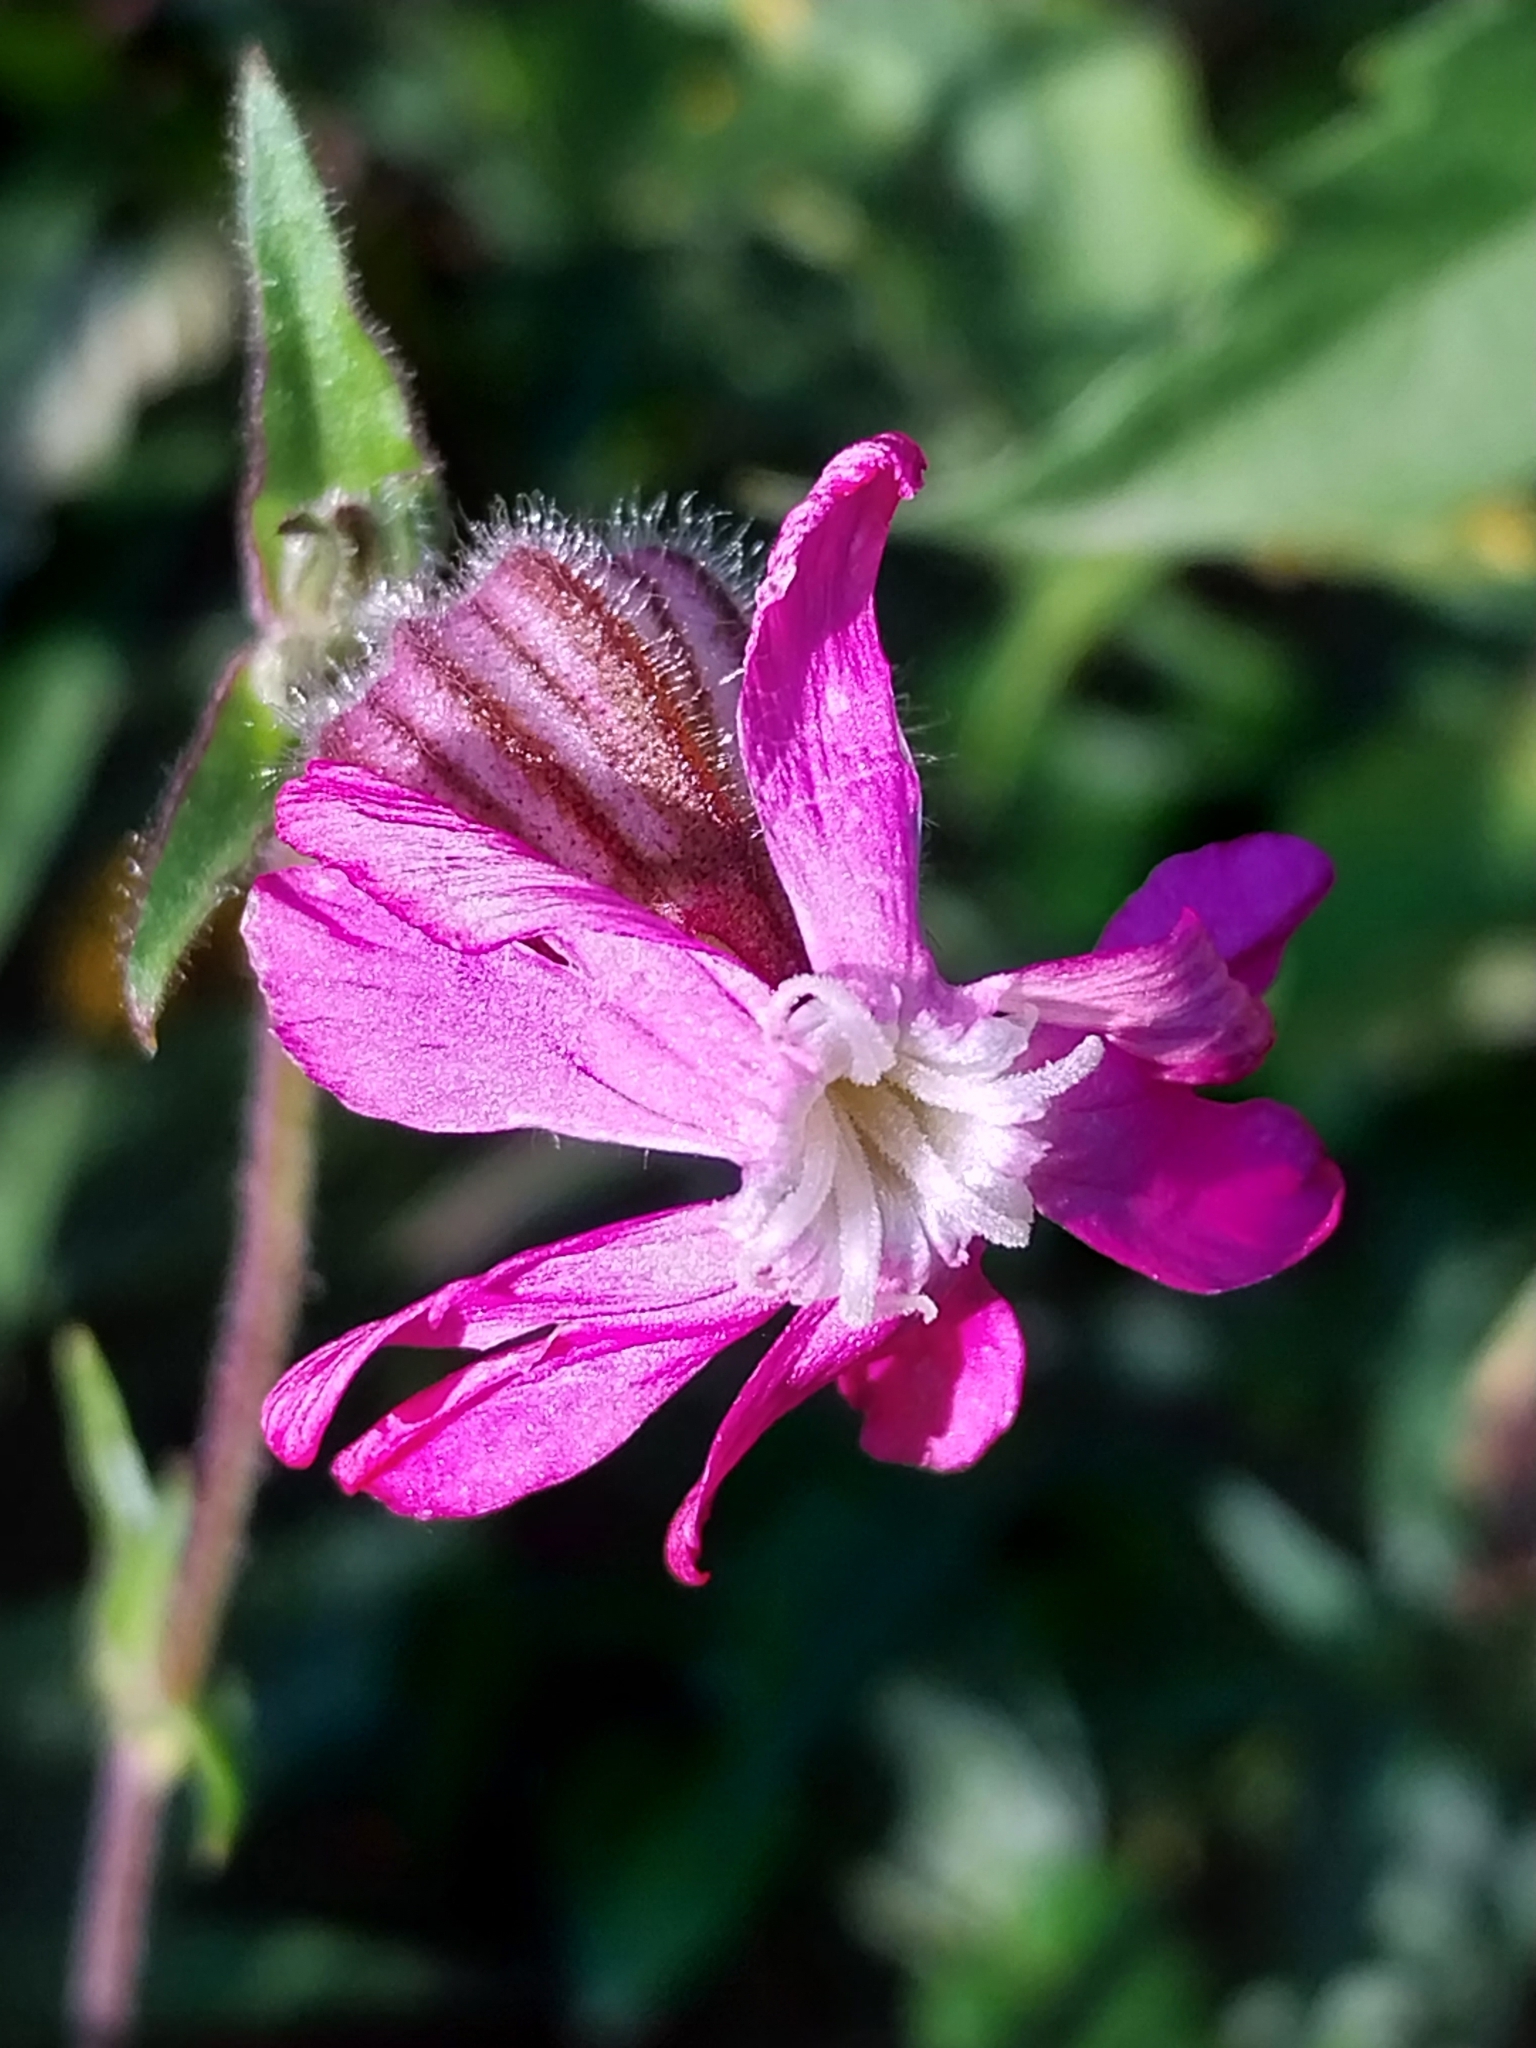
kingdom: Plantae
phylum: Tracheophyta
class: Magnoliopsida
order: Caryophyllales
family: Caryophyllaceae
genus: Silene
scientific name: Silene dioica
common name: Red campion
